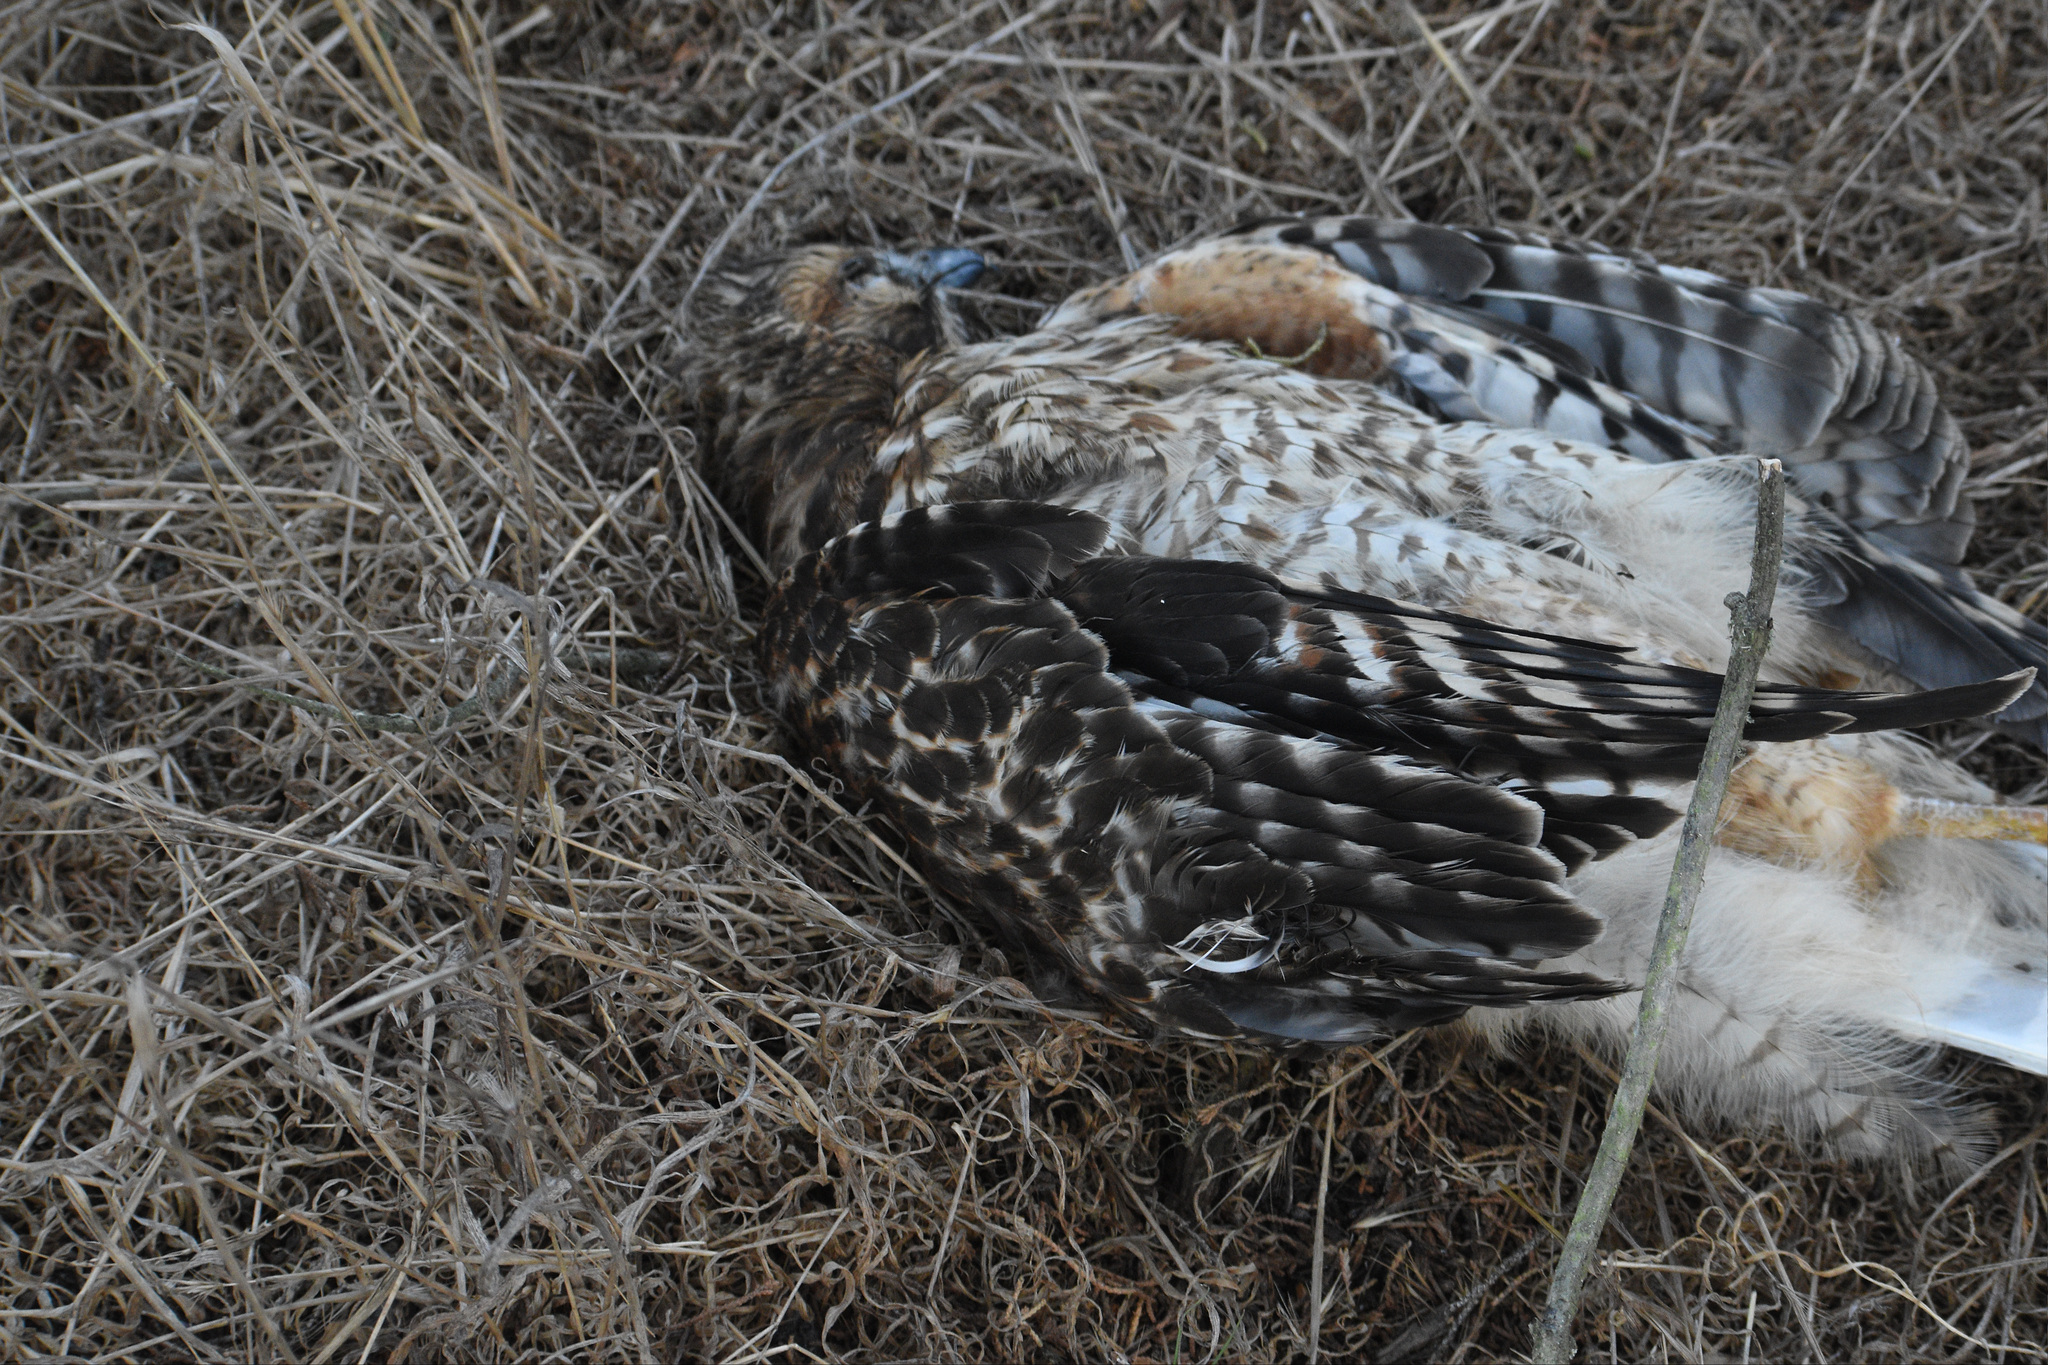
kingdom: Animalia
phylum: Chordata
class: Aves
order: Accipitriformes
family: Accipitridae
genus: Buteo
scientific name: Buteo lineatus
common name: Red-shouldered hawk
